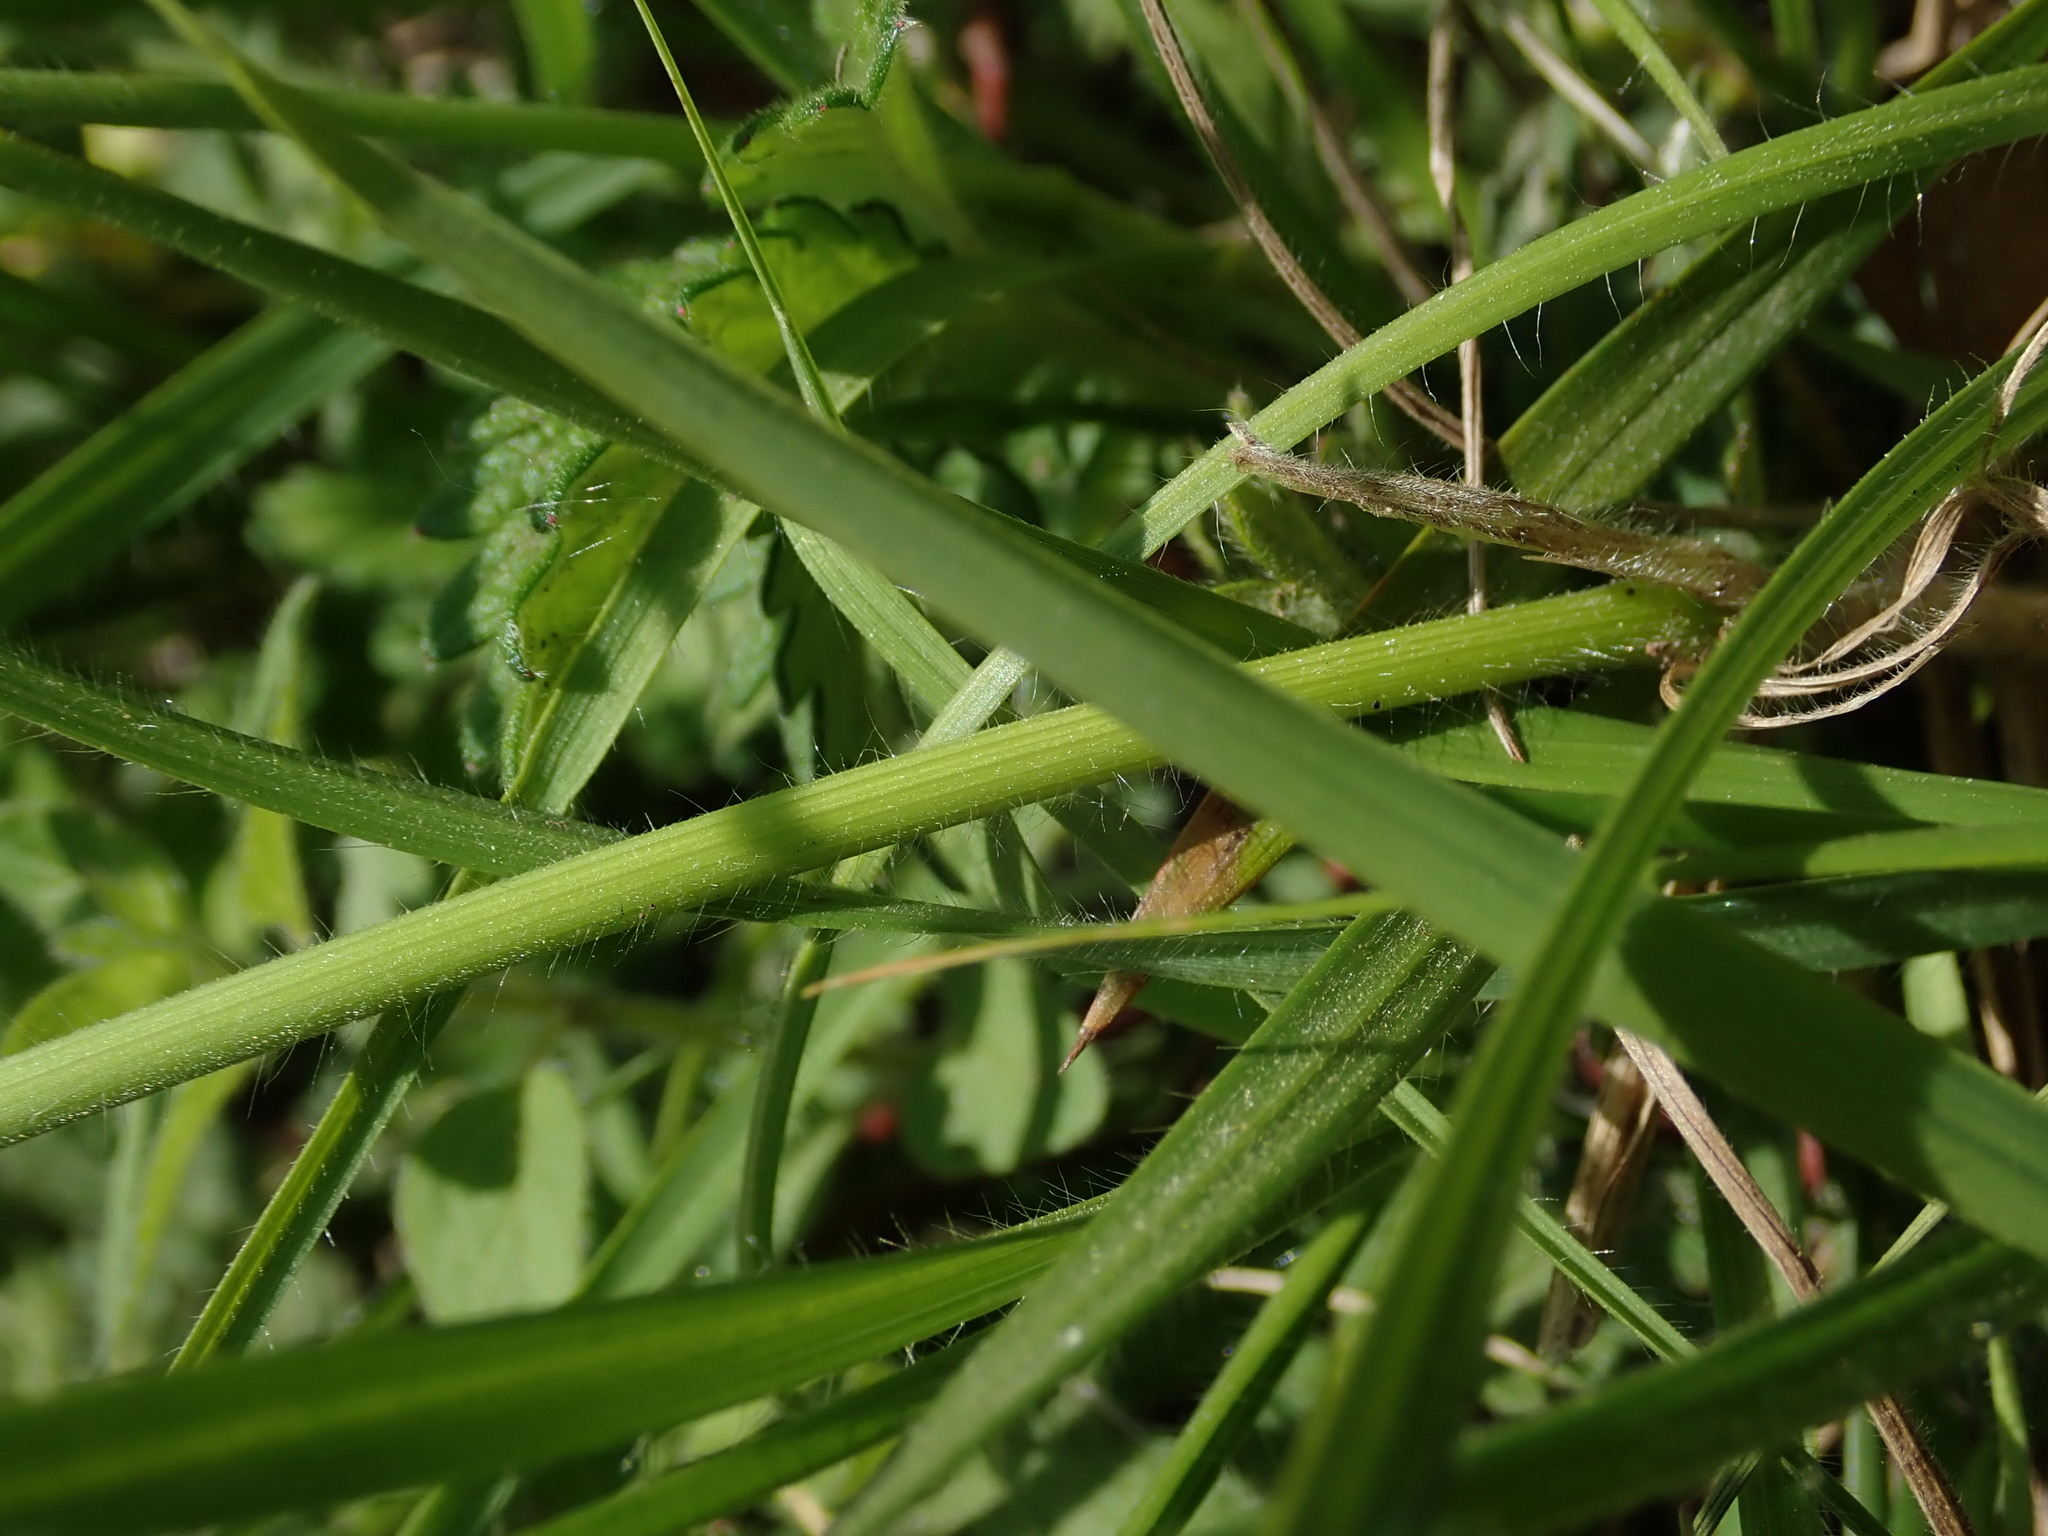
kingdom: Plantae
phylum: Tracheophyta
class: Liliopsida
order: Poales
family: Poaceae
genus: Bromus
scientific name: Bromus erectus
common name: Erect brome
